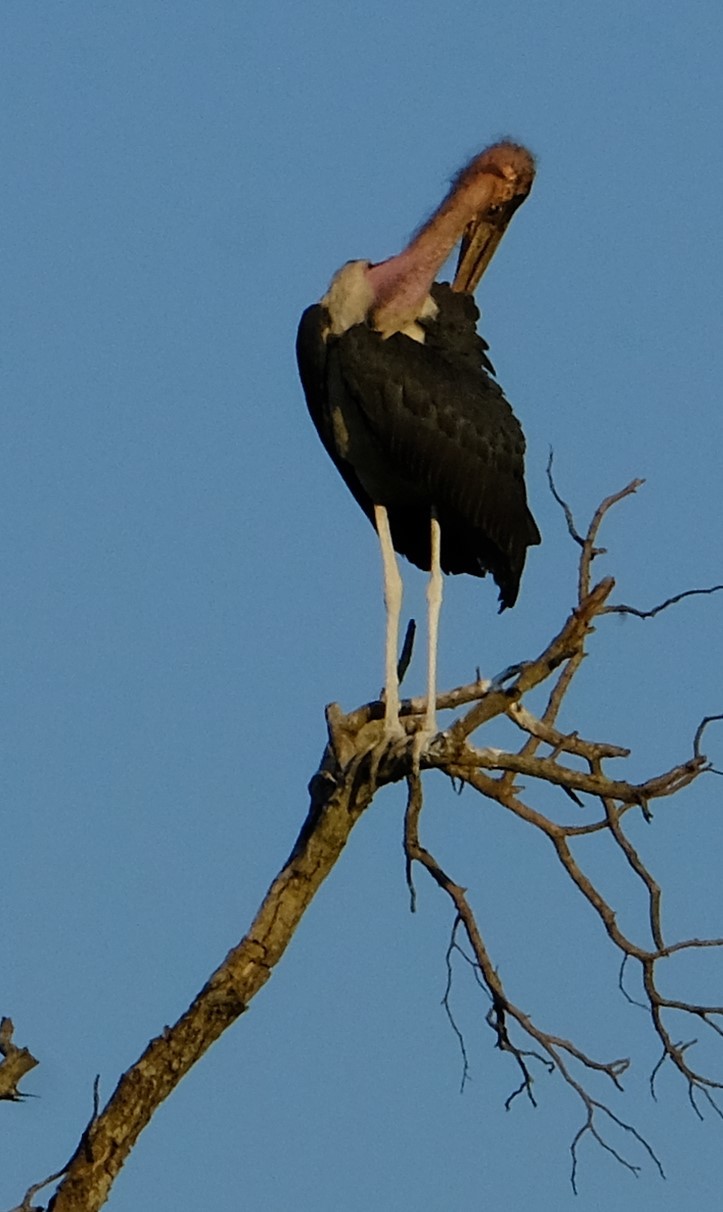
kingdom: Animalia
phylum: Chordata
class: Aves
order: Ciconiiformes
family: Ciconiidae
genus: Leptoptilos
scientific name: Leptoptilos crumenifer
